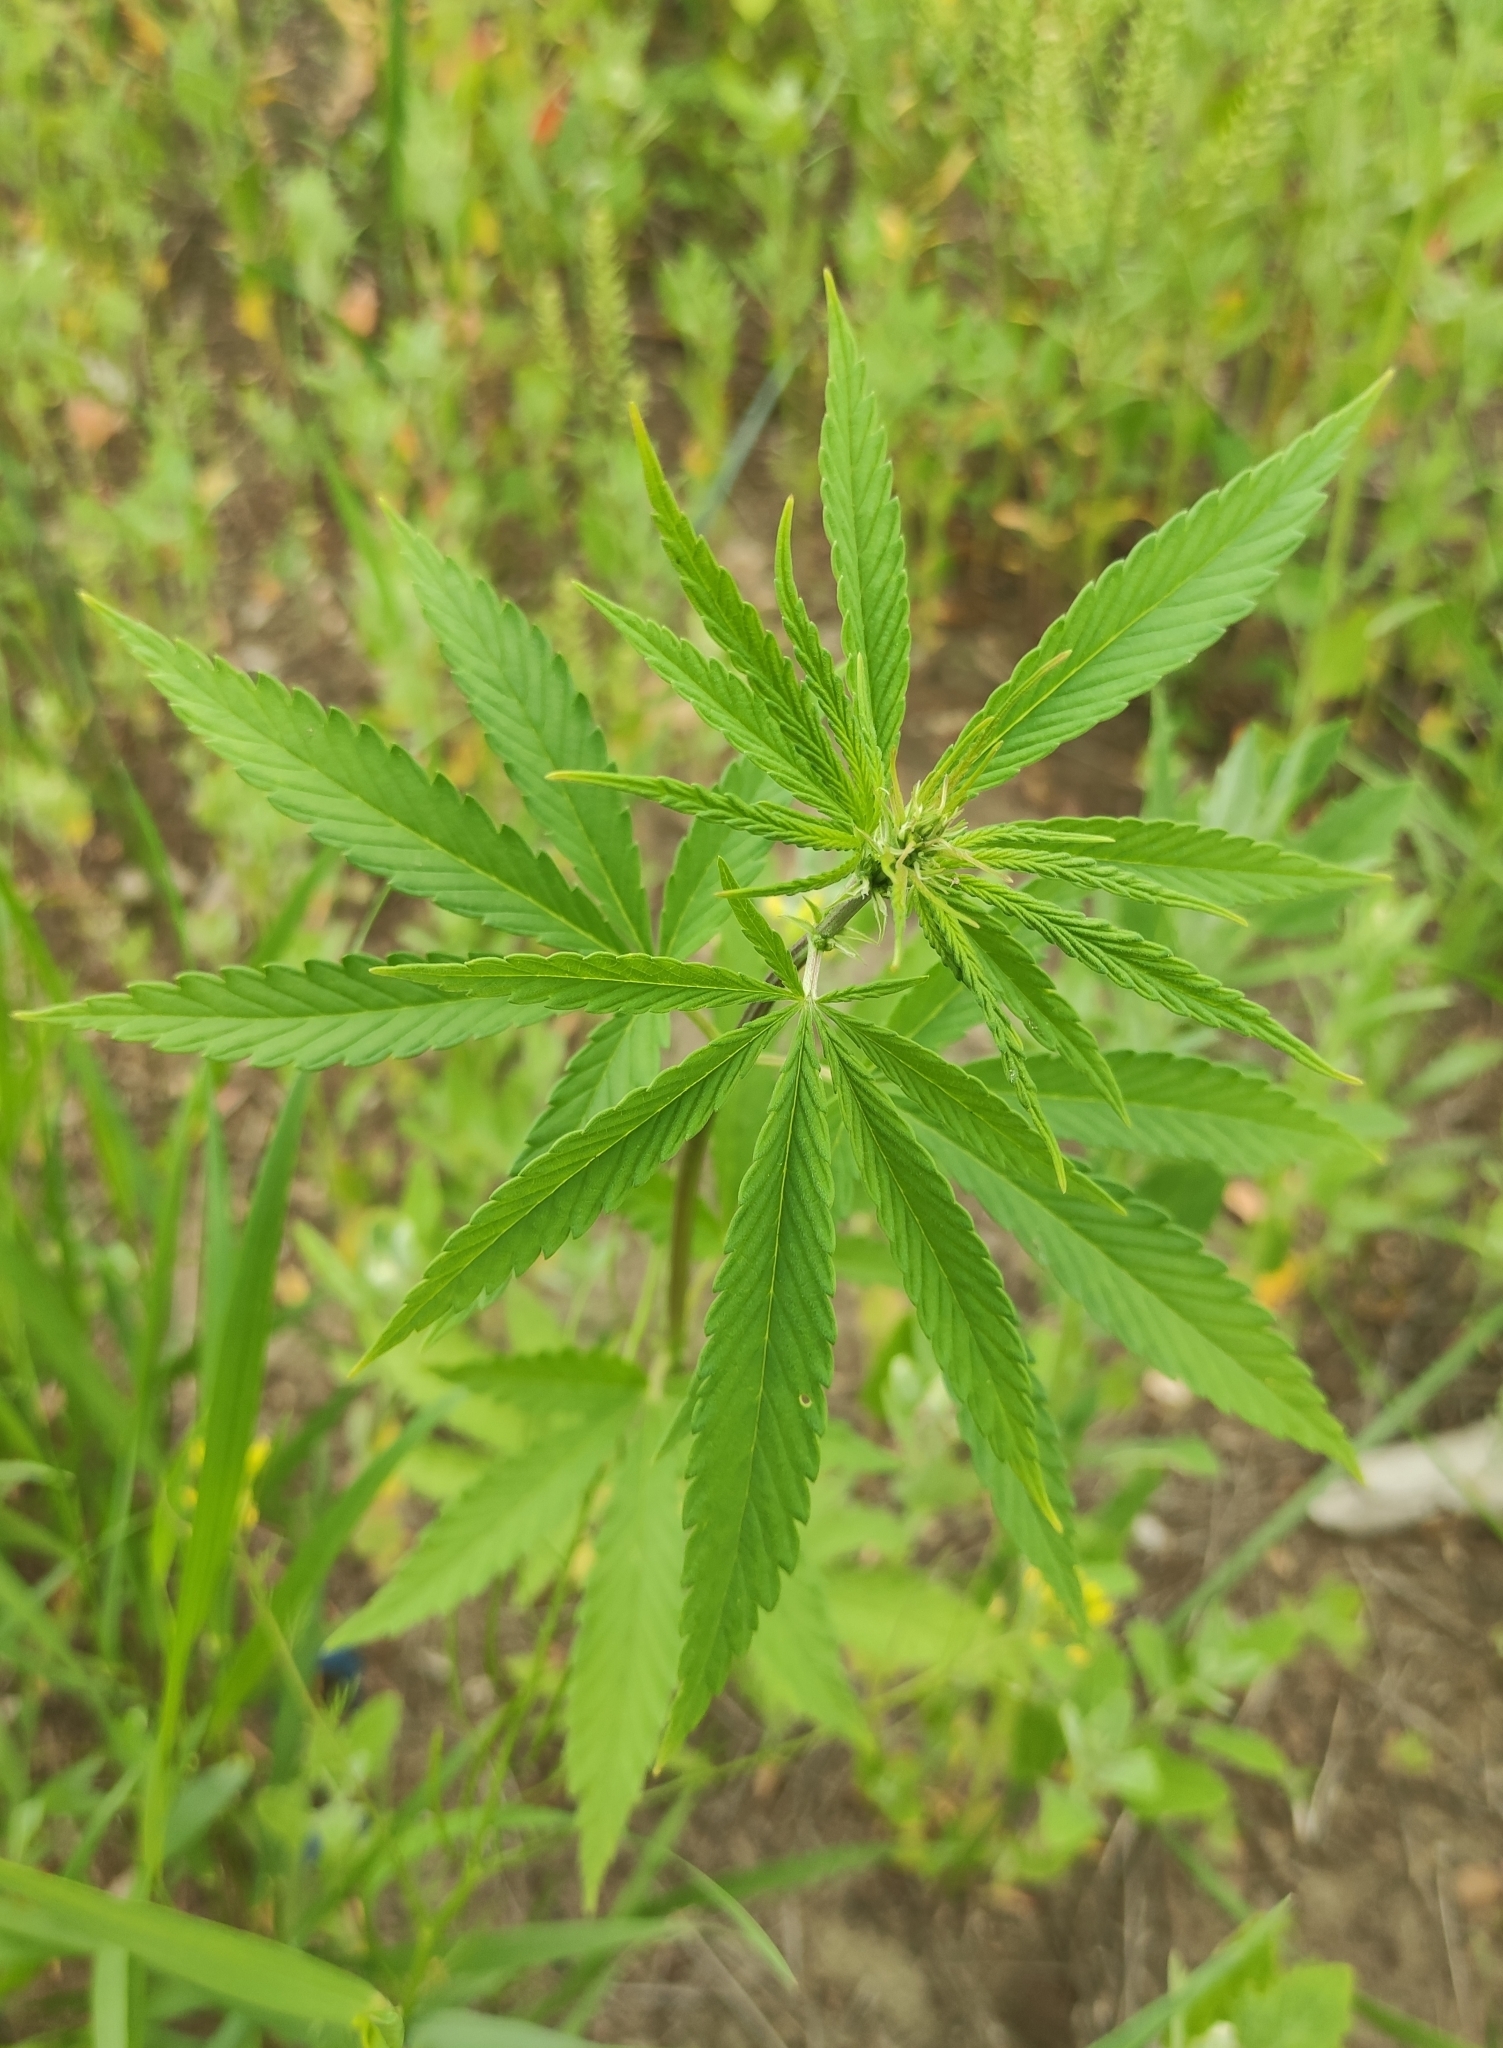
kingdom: Plantae
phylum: Tracheophyta
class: Magnoliopsida
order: Rosales
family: Cannabaceae
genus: Cannabis
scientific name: Cannabis sativa
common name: Hemp
